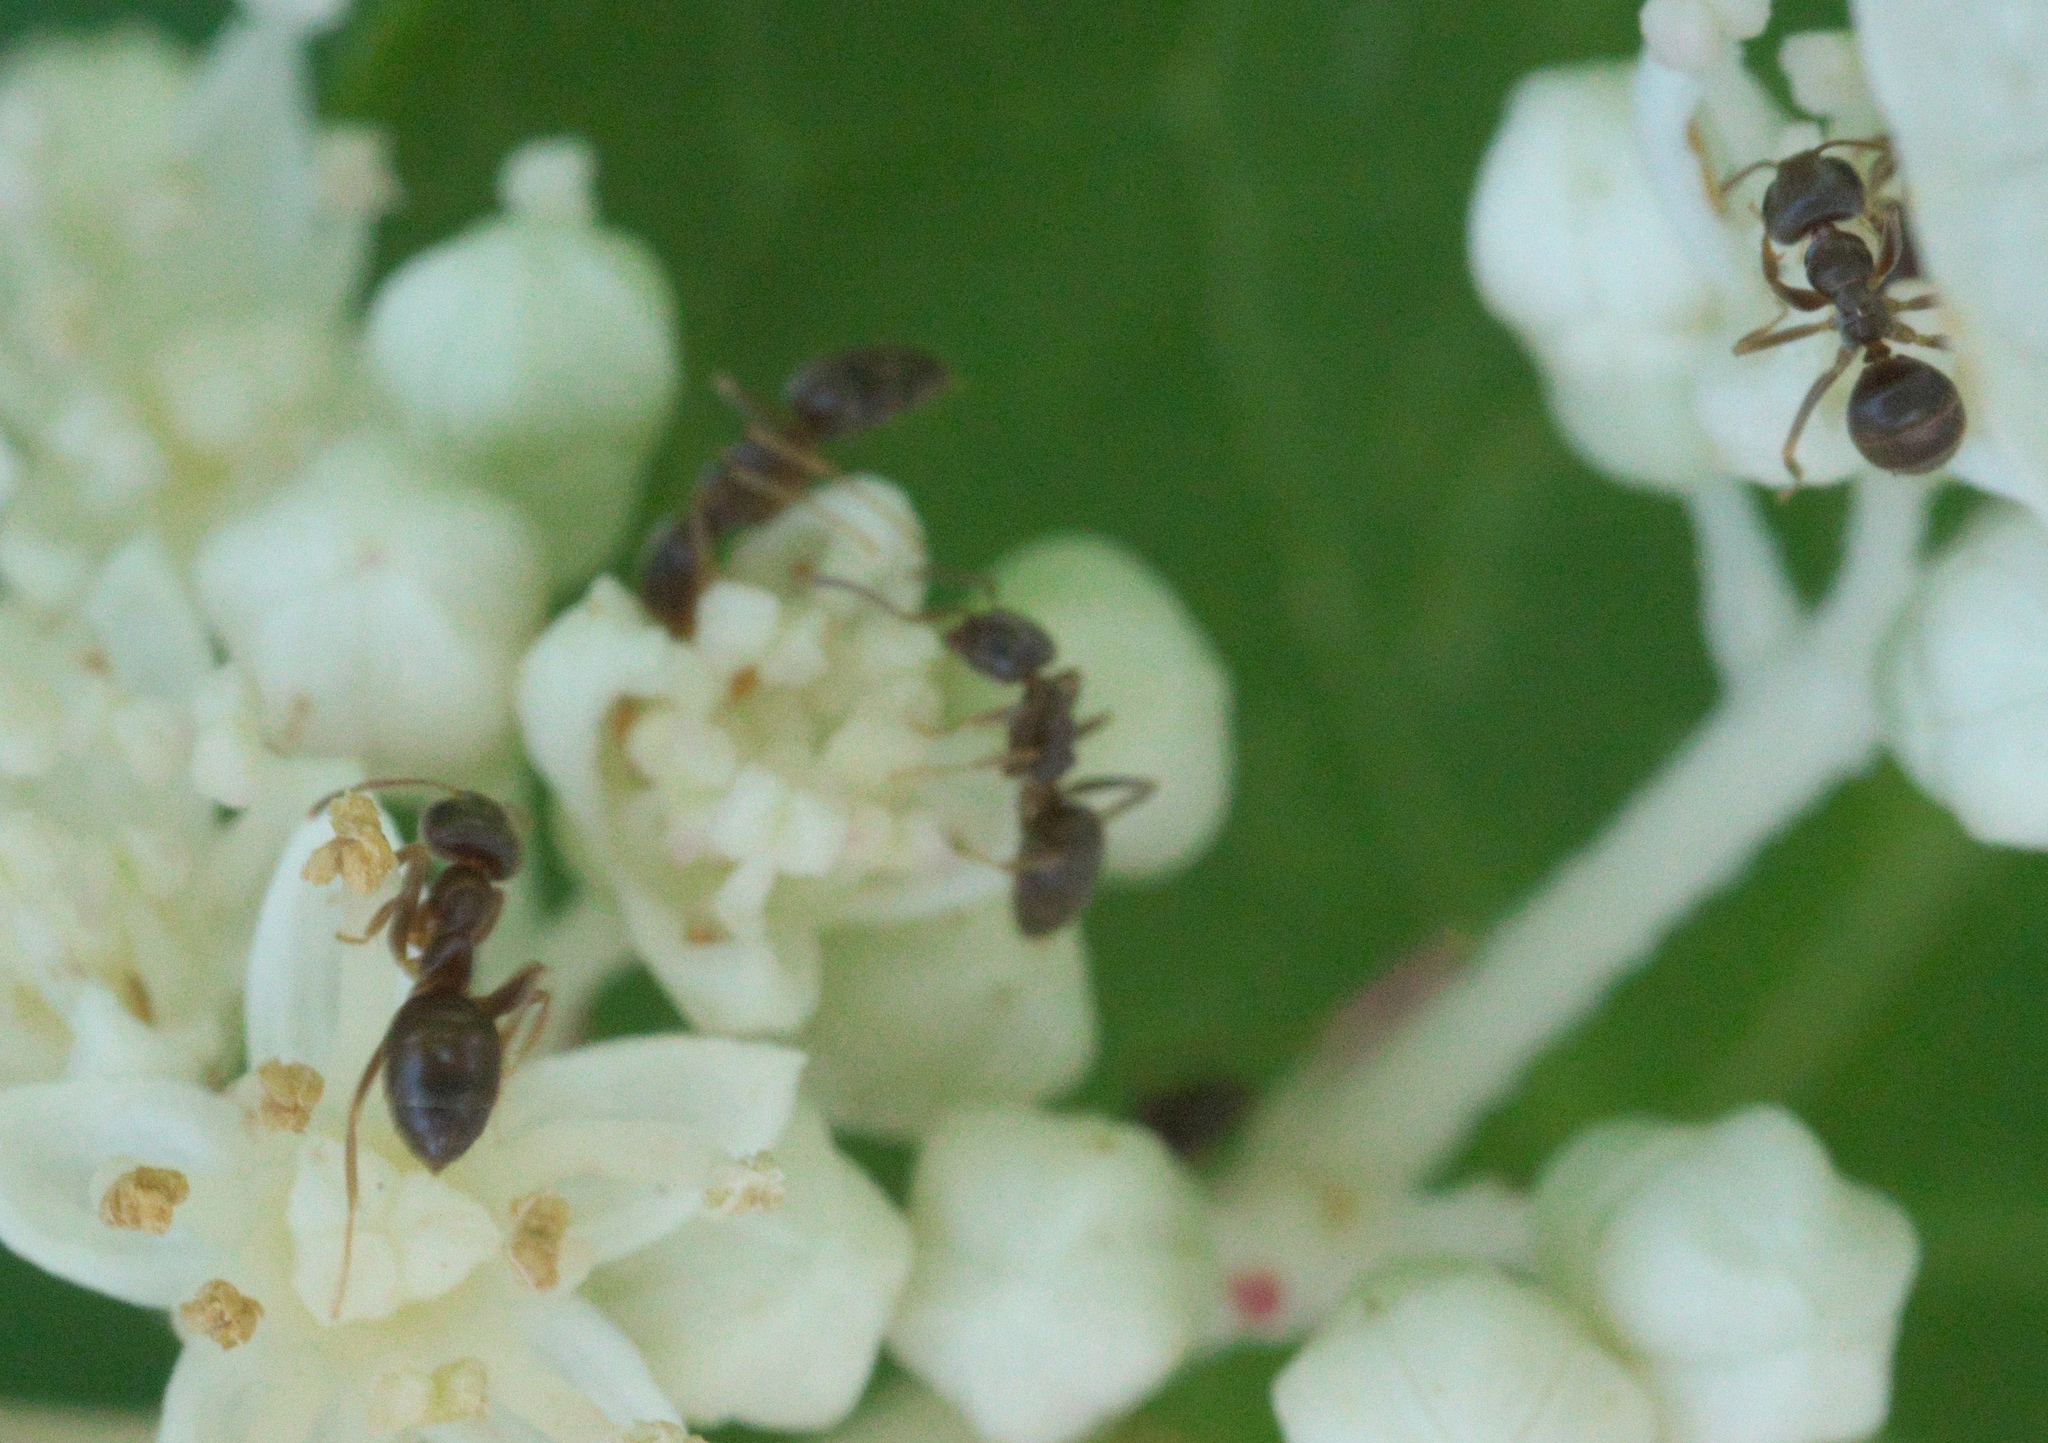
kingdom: Animalia
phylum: Arthropoda
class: Insecta
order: Hymenoptera
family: Formicidae
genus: Lasius
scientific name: Lasius americanus
